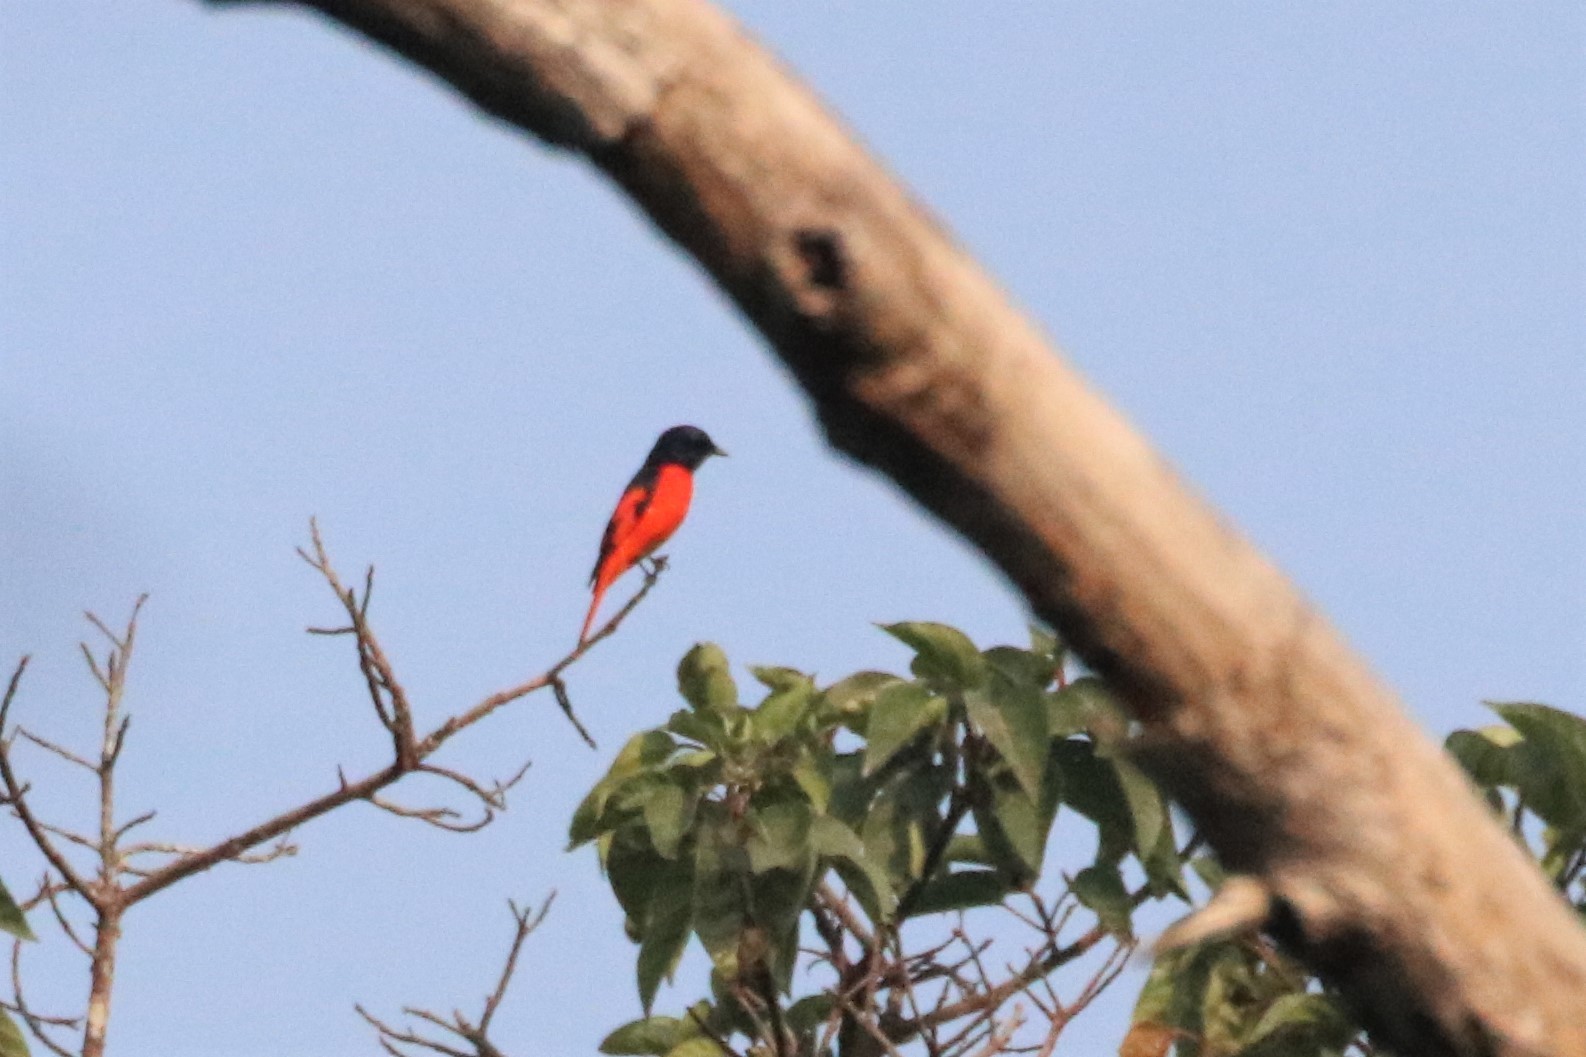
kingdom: Animalia
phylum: Chordata
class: Aves
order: Passeriformes
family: Campephagidae
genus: Pericrocotus
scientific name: Pericrocotus speciosus
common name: Scarlet minivet
